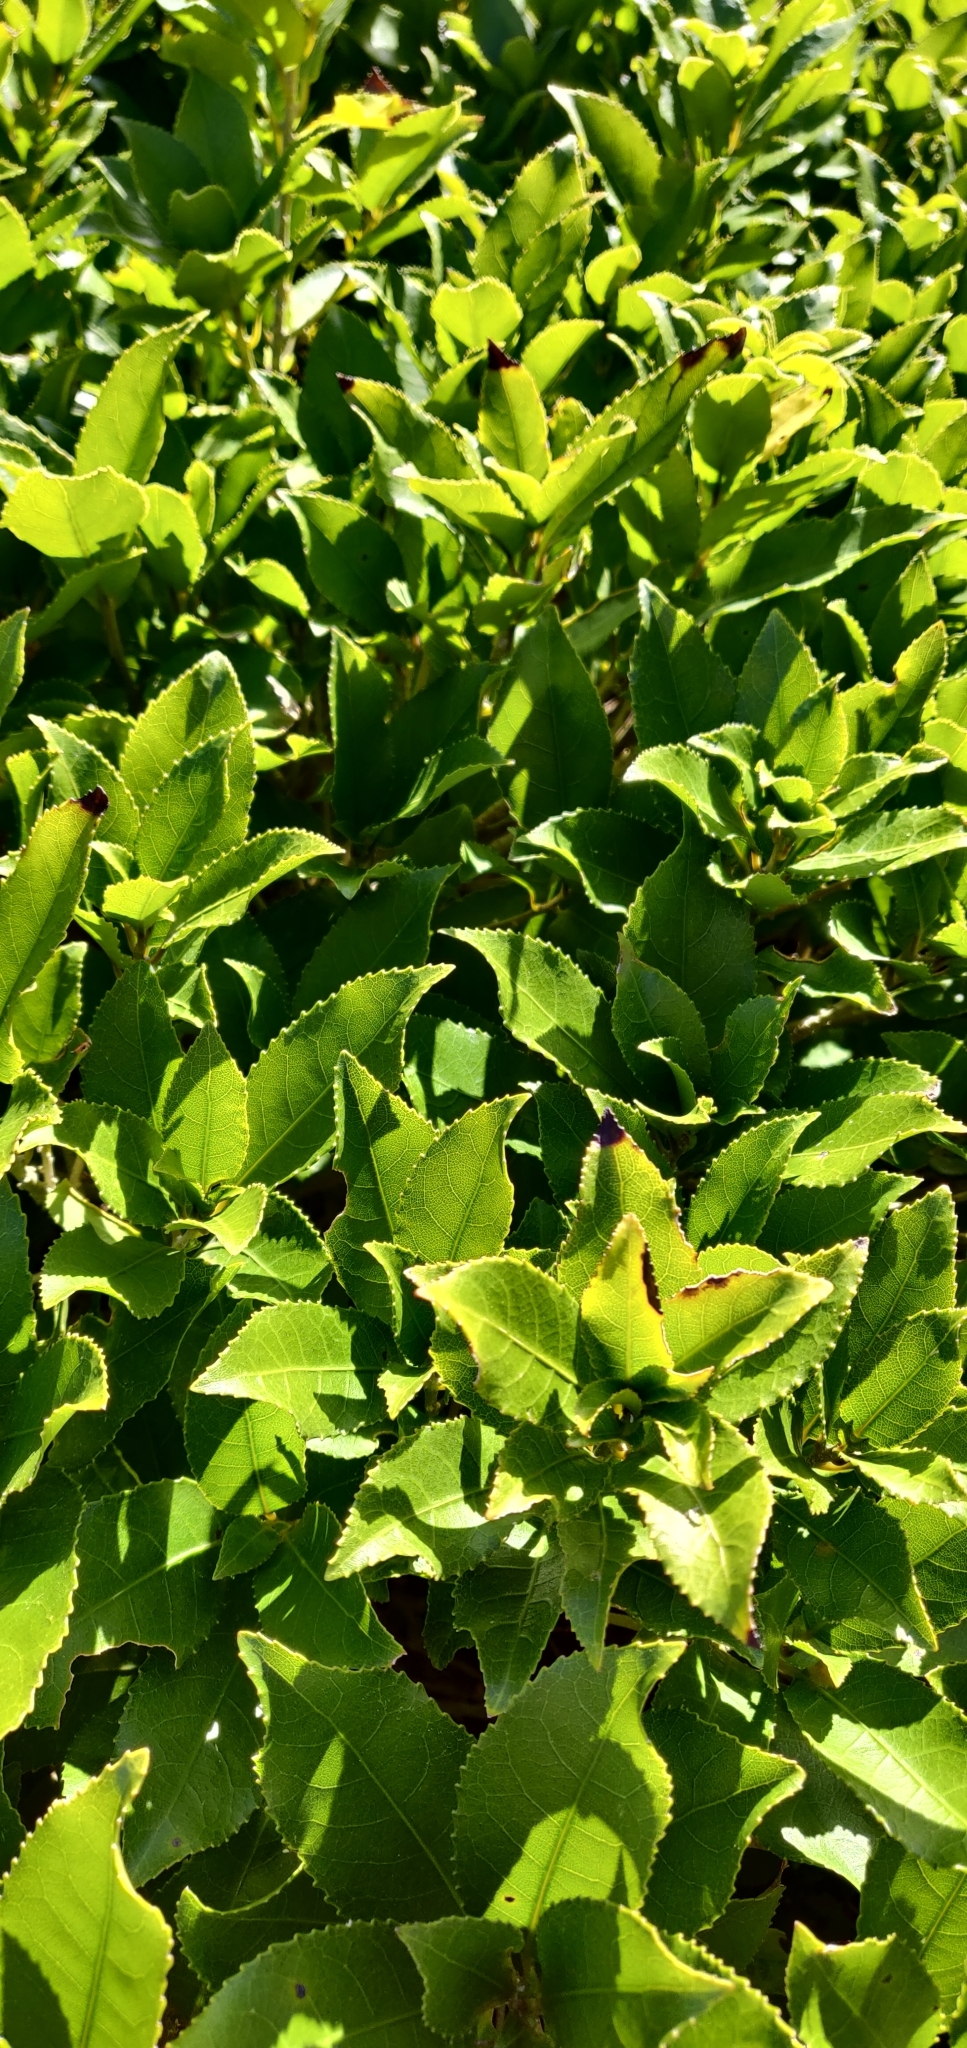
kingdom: Plantae
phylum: Tracheophyta
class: Magnoliopsida
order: Malpighiales
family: Violaceae
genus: Melicytus
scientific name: Melicytus ramiflorus
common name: Mahoe
